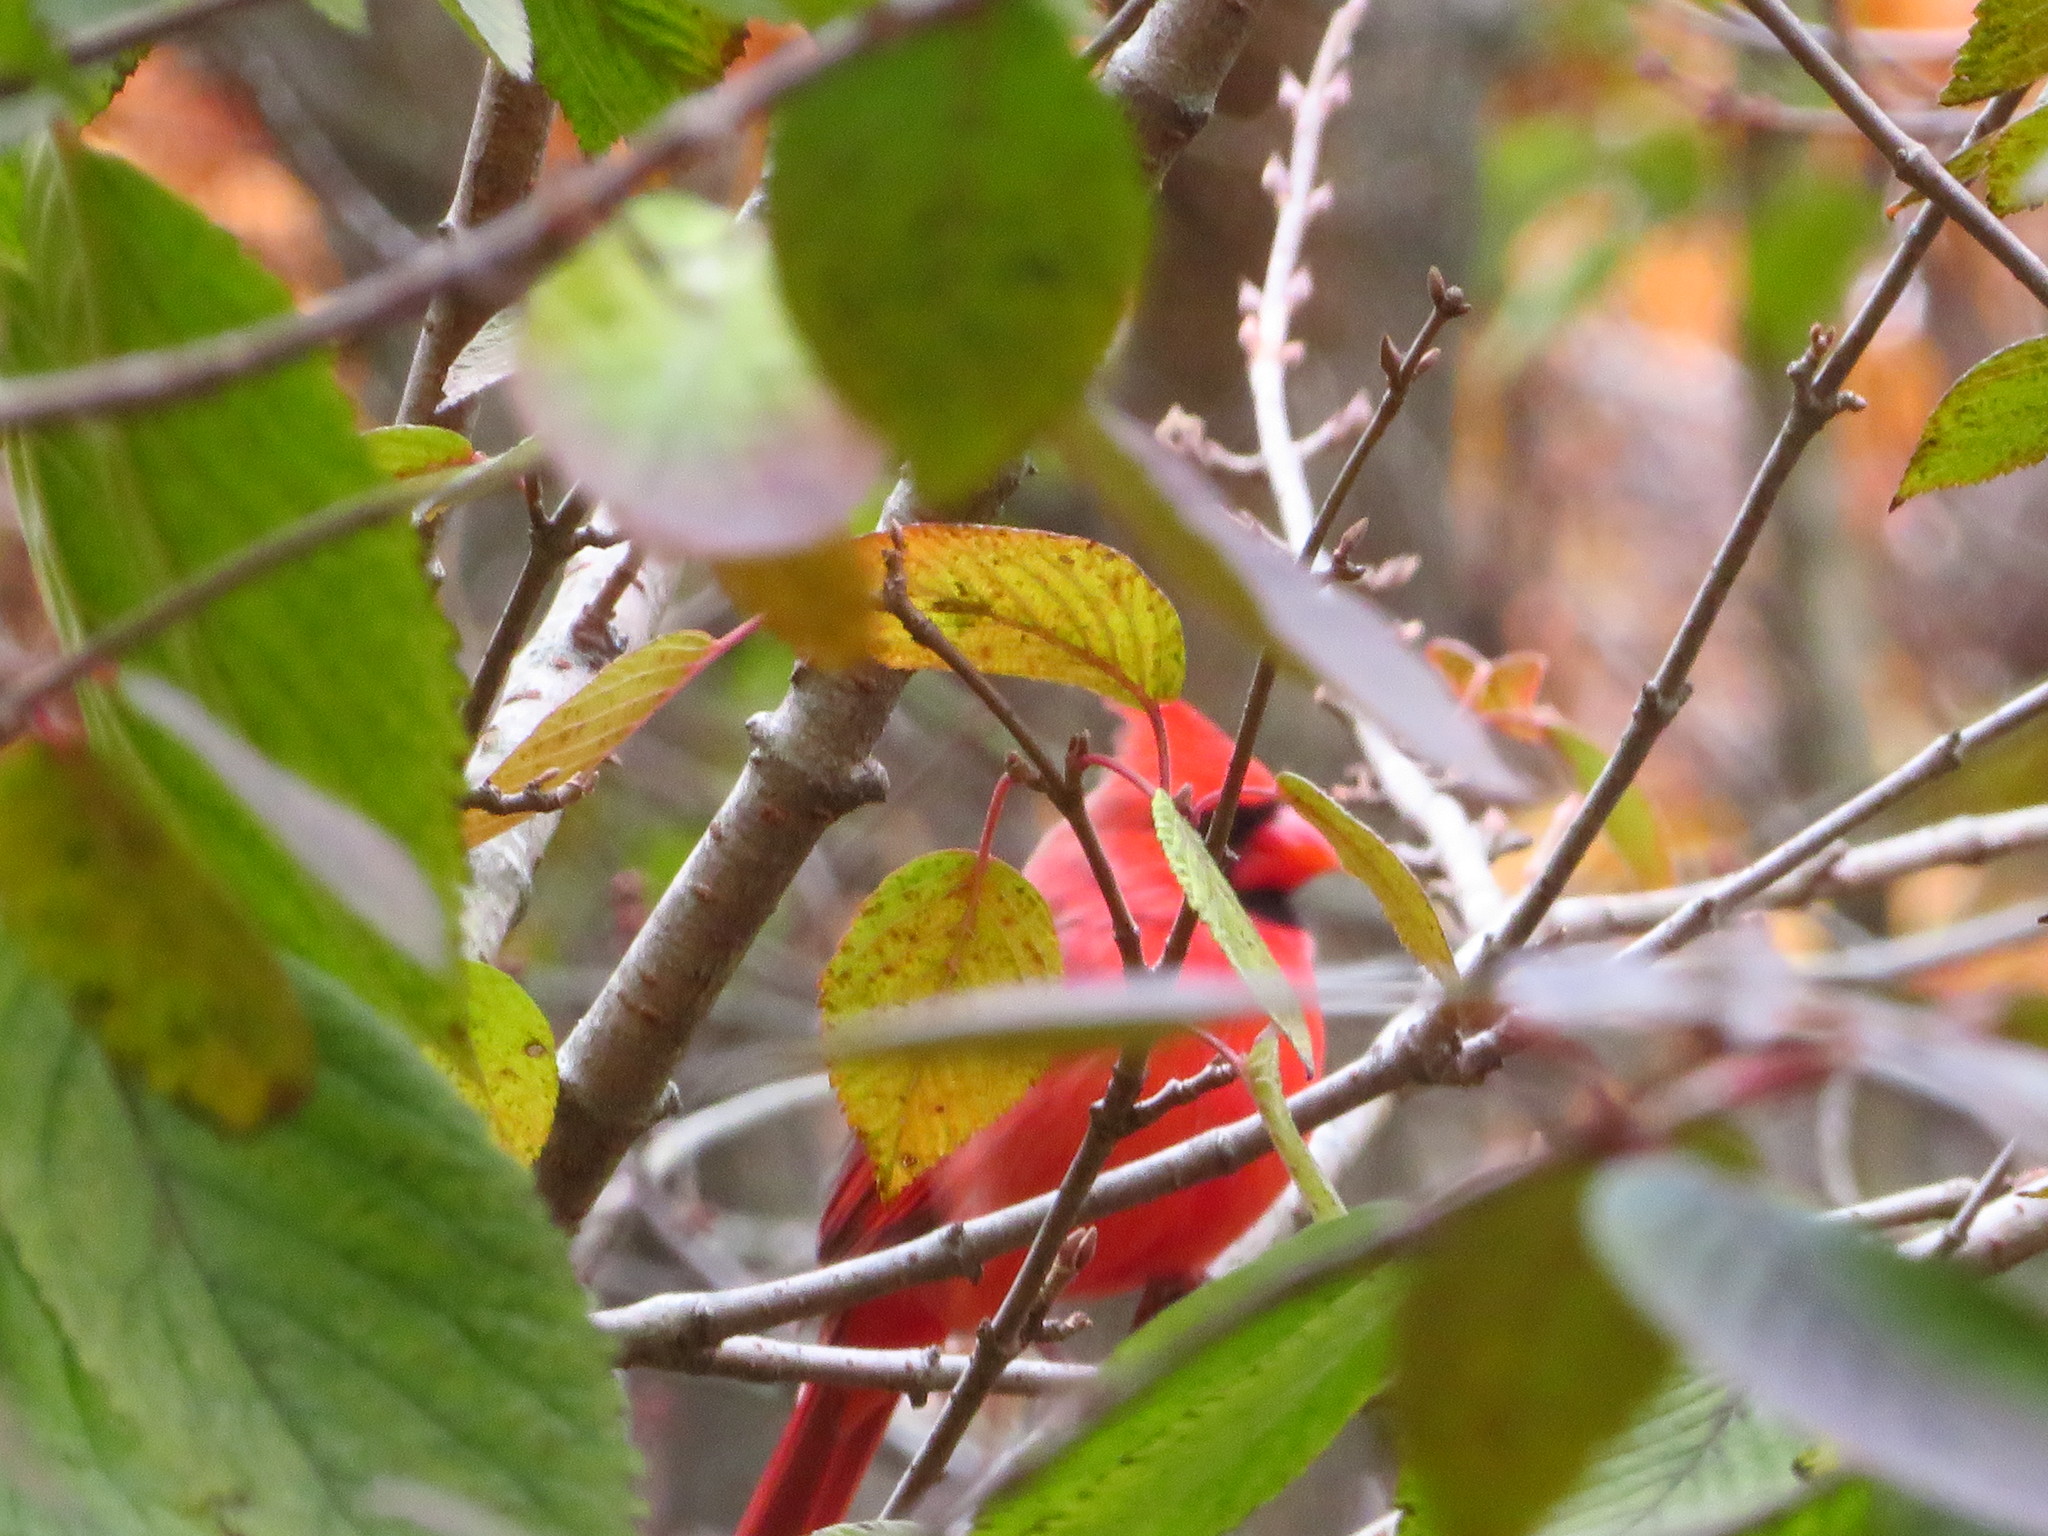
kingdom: Animalia
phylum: Chordata
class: Aves
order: Passeriformes
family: Cardinalidae
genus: Cardinalis
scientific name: Cardinalis cardinalis
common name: Northern cardinal
